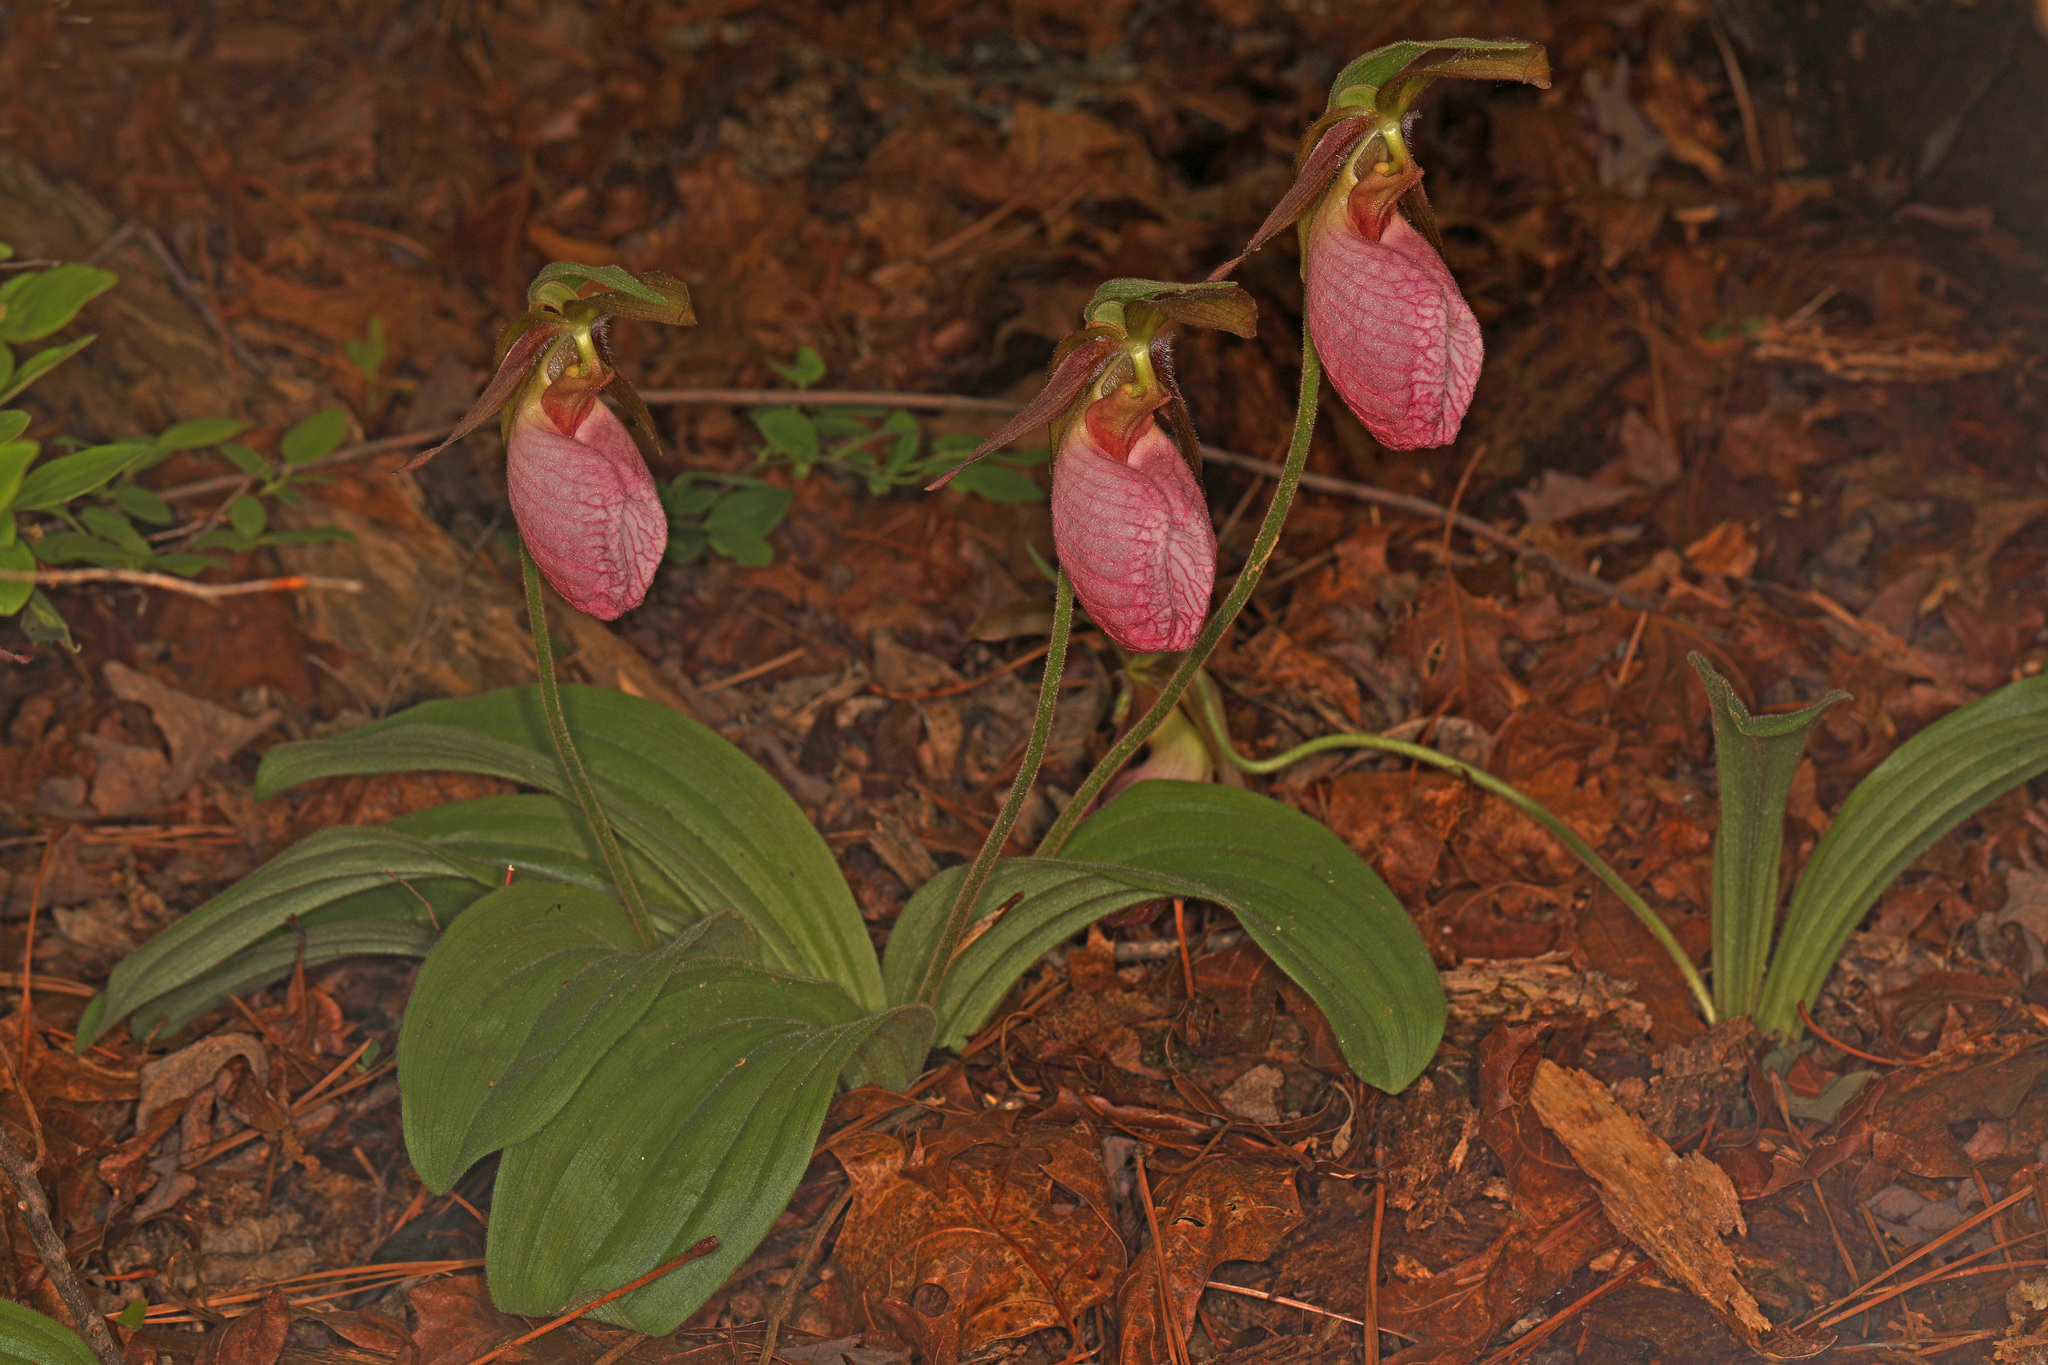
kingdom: Plantae
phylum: Tracheophyta
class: Liliopsida
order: Asparagales
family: Orchidaceae
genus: Cypripedium
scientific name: Cypripedium acaule
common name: Pink lady's-slipper
